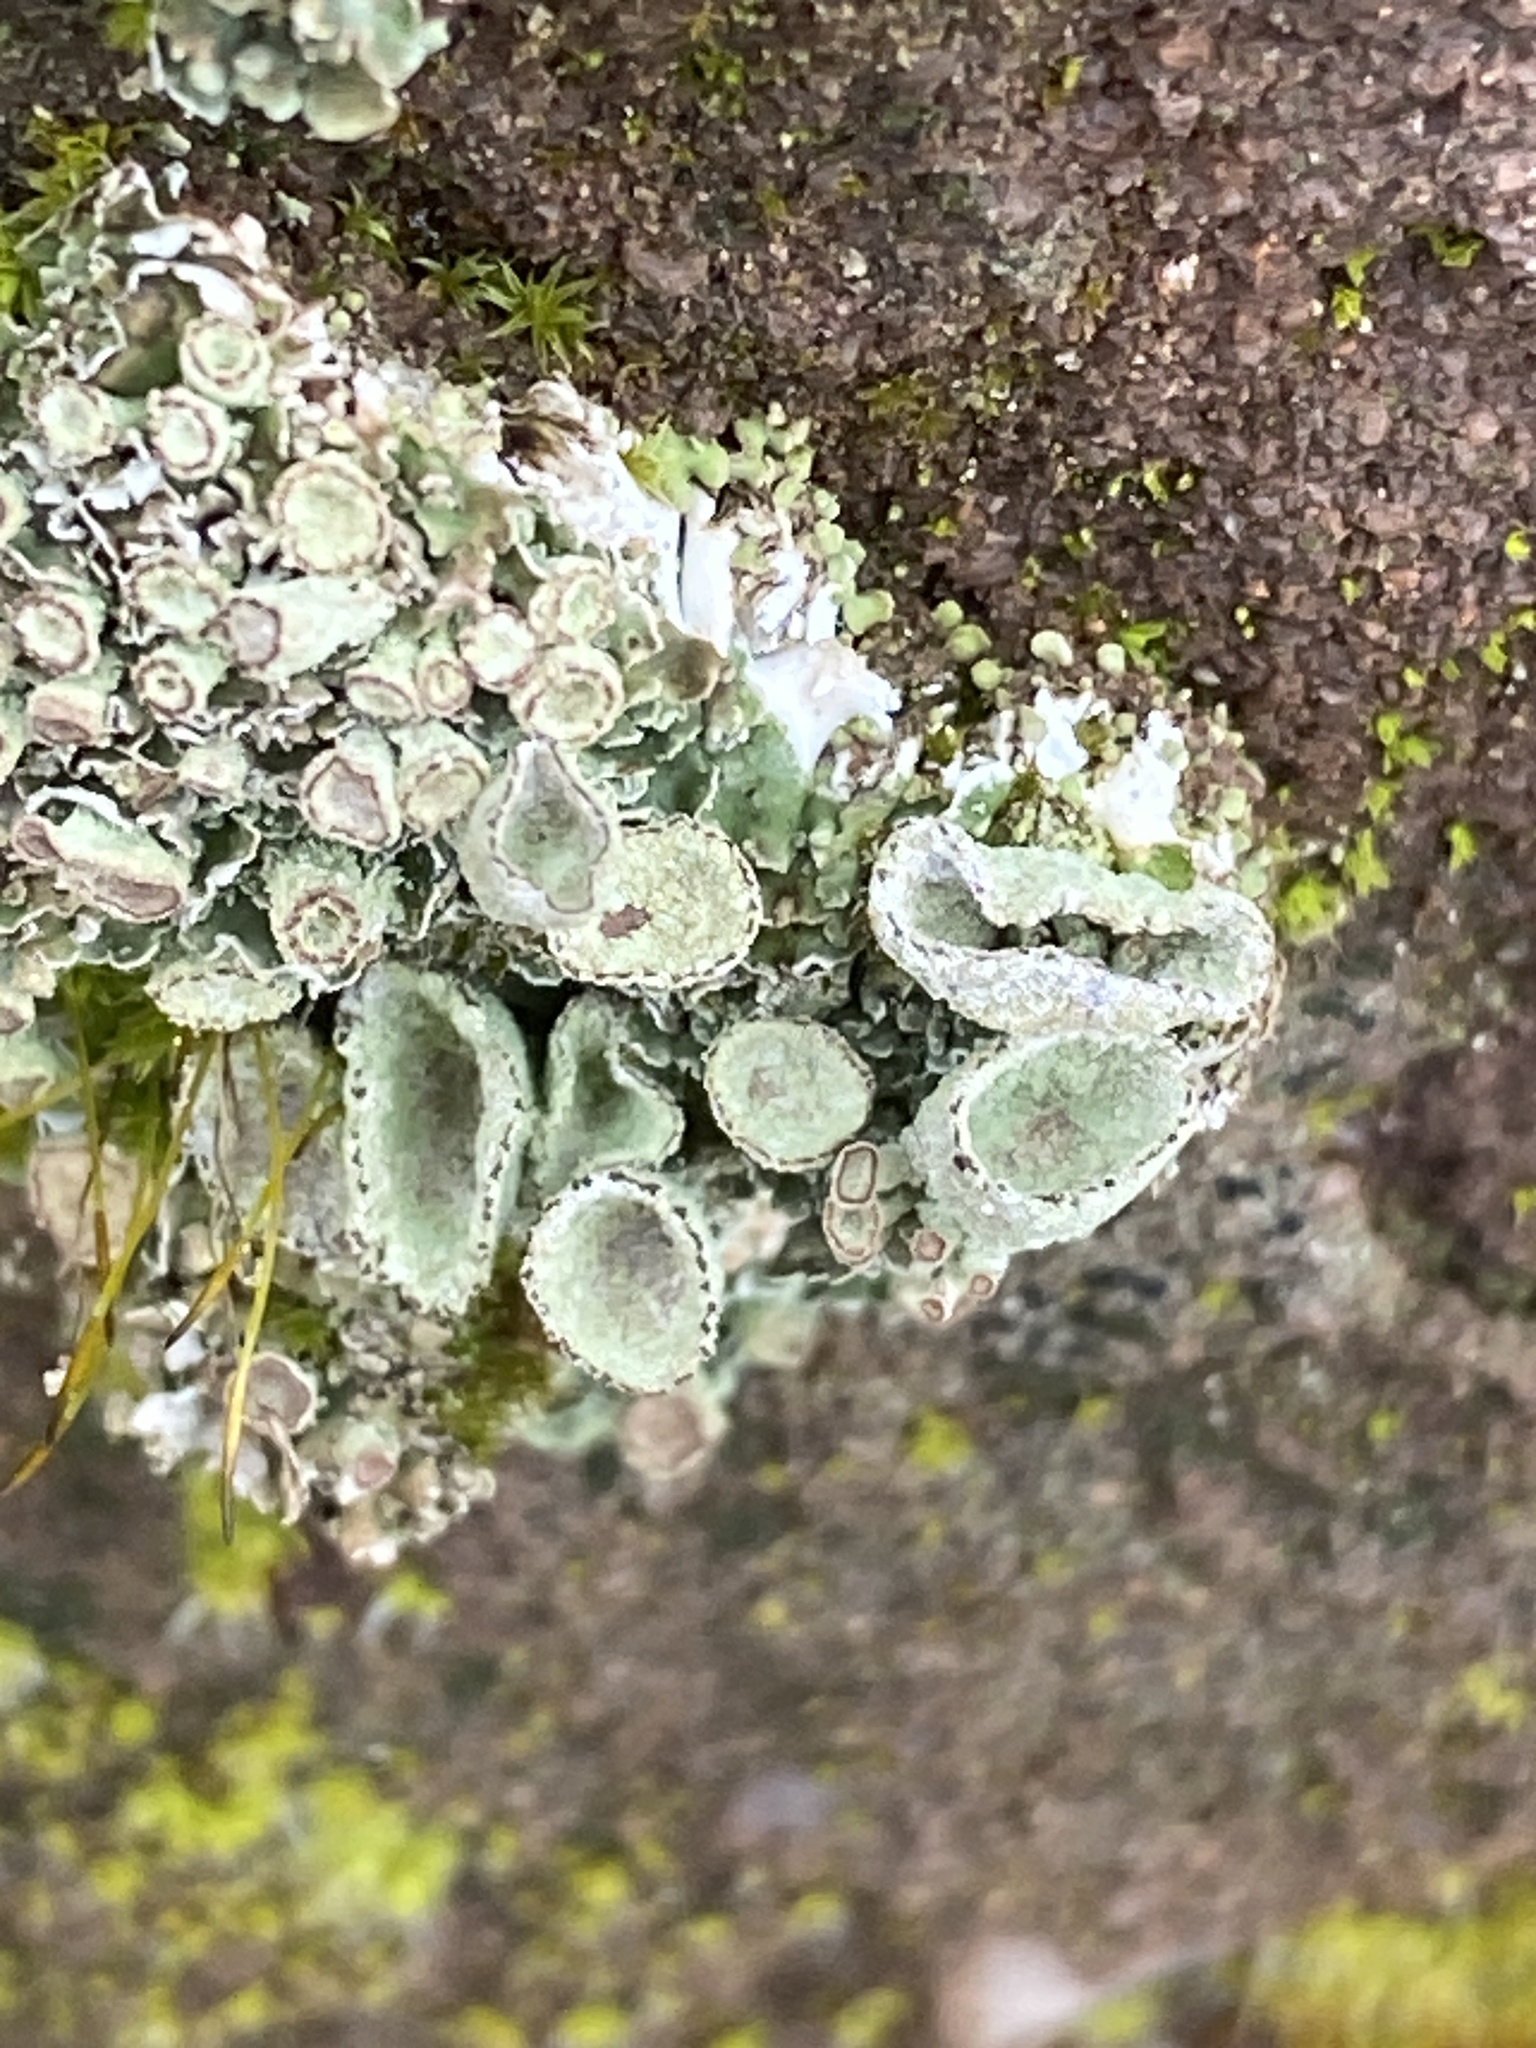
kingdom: Fungi
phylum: Ascomycota
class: Lecanoromycetes
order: Lecanorales
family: Cladoniaceae
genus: Cladonia
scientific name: Cladonia chlorophaea
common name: Mealy pixie cup
